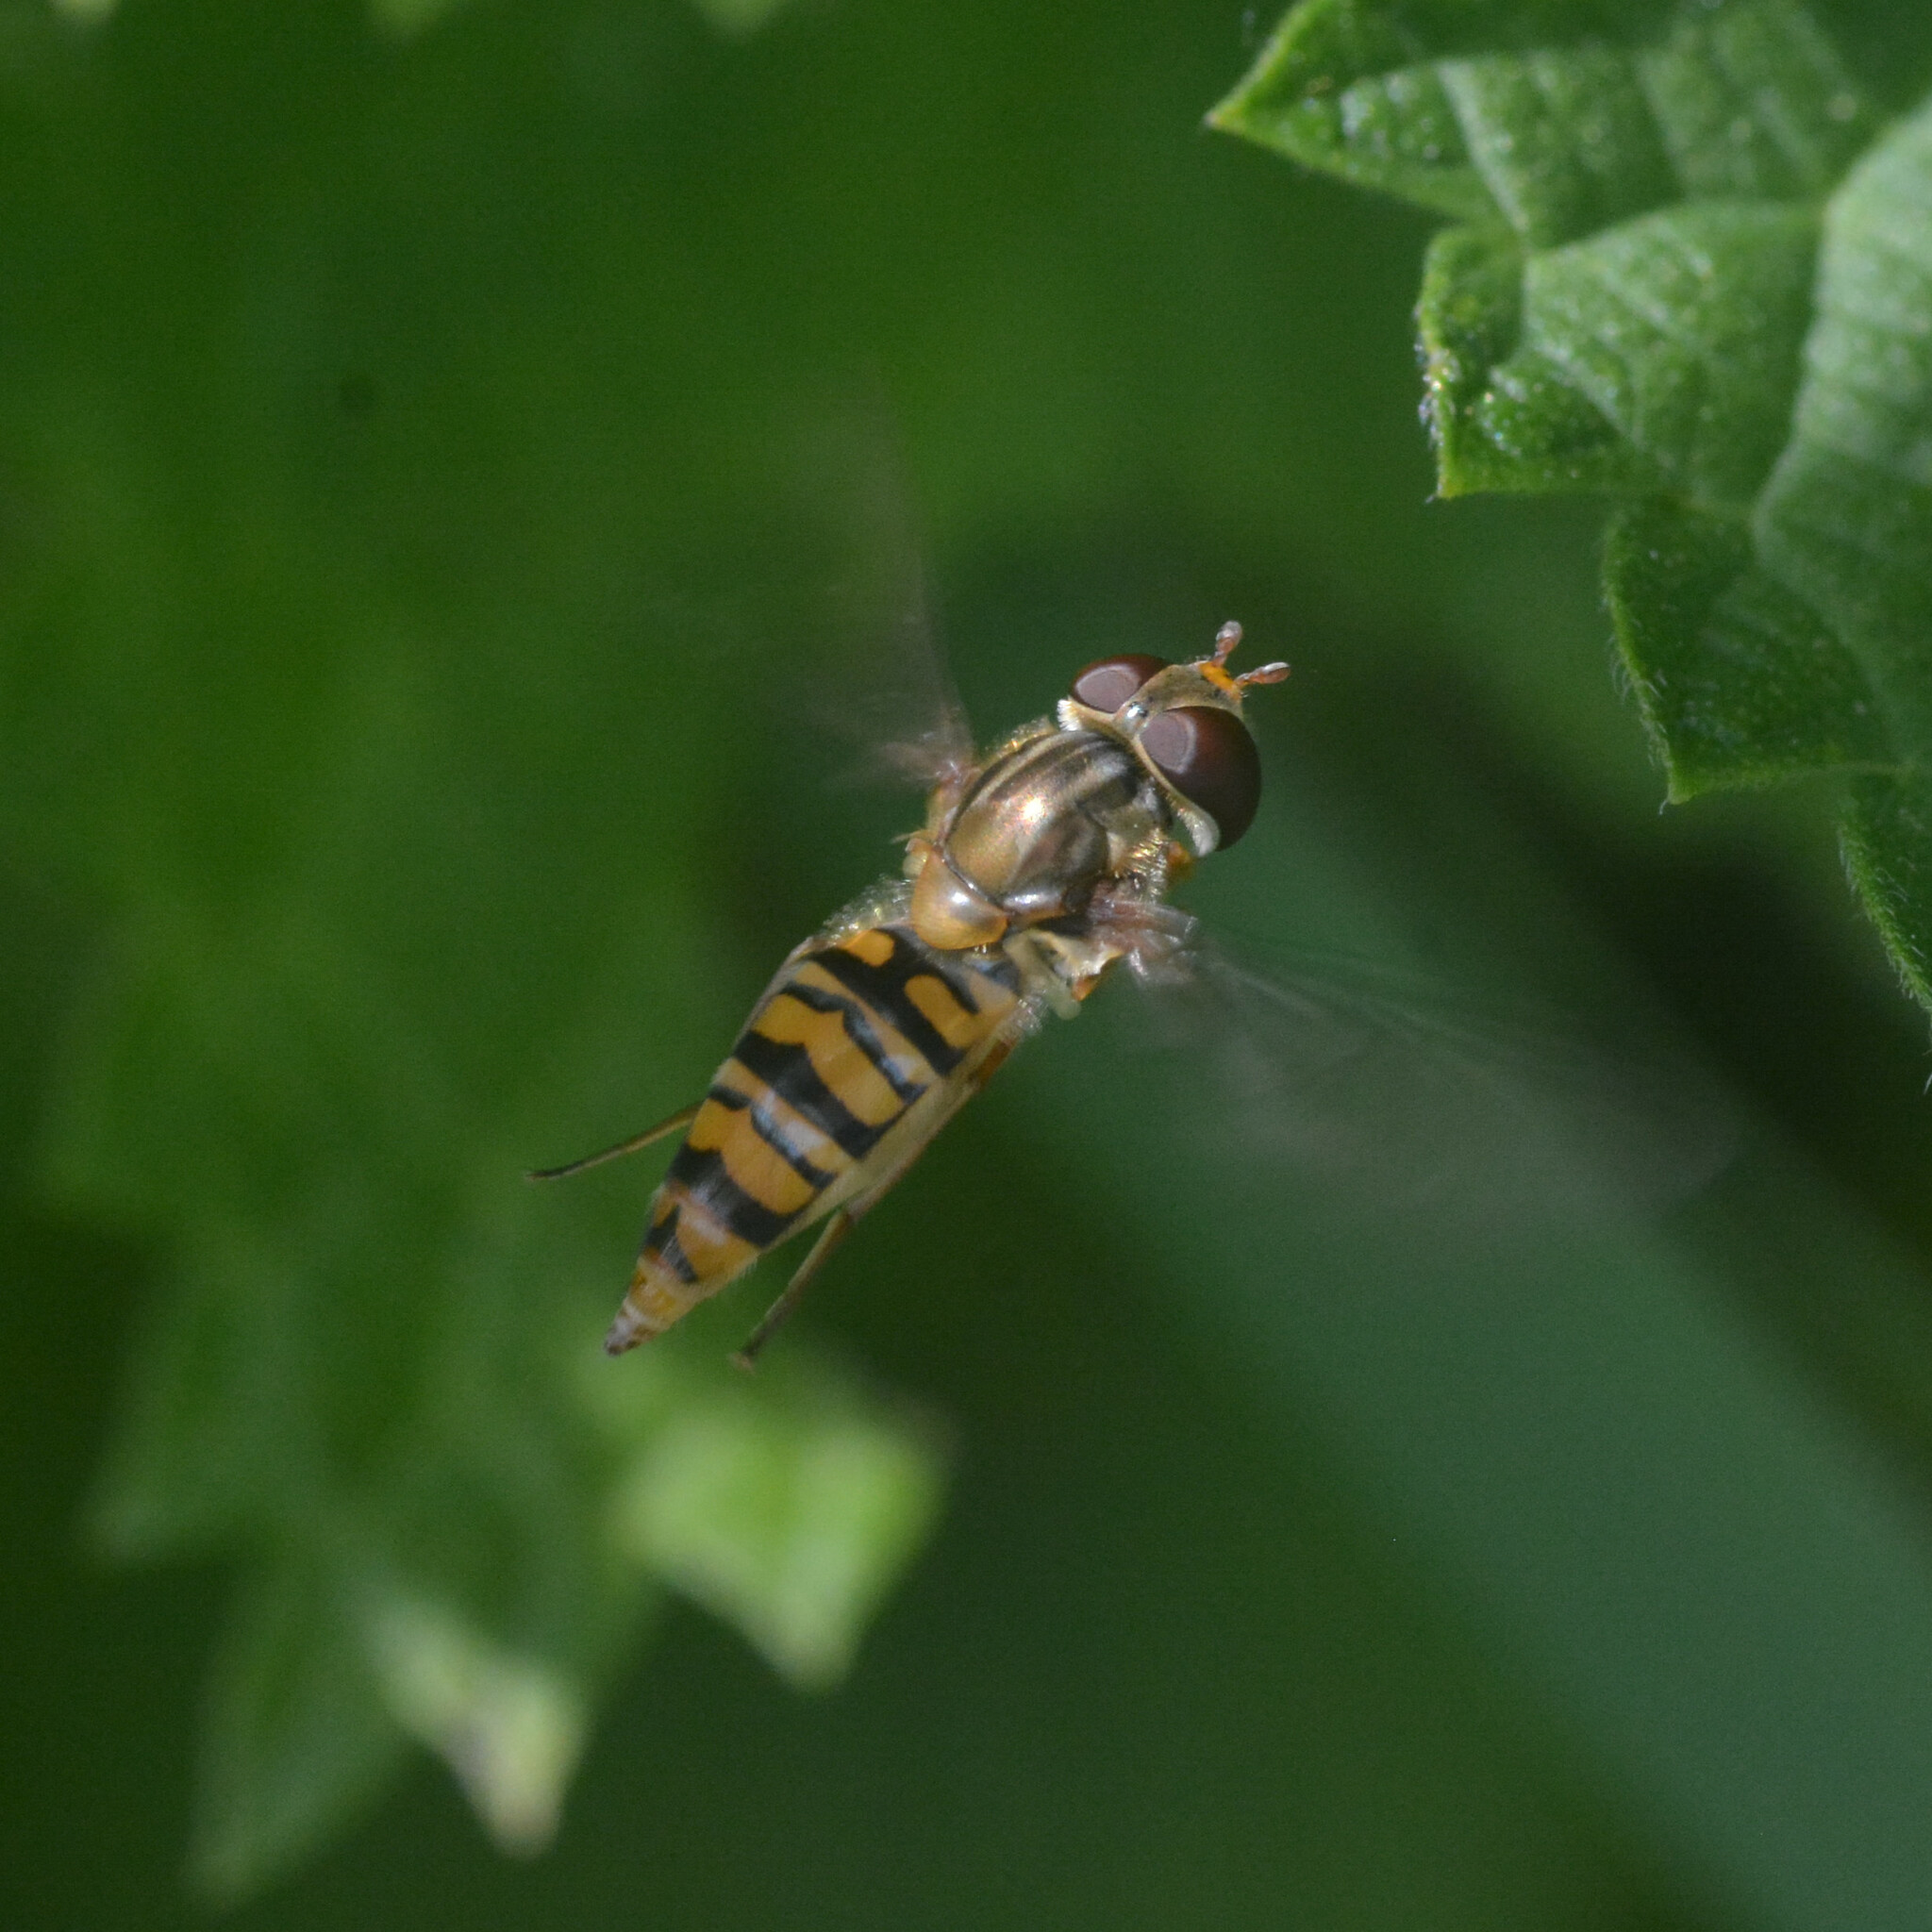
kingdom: Animalia
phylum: Arthropoda
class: Insecta
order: Diptera
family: Syrphidae
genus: Episyrphus
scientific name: Episyrphus balteatus
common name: Marmalade hoverfly
